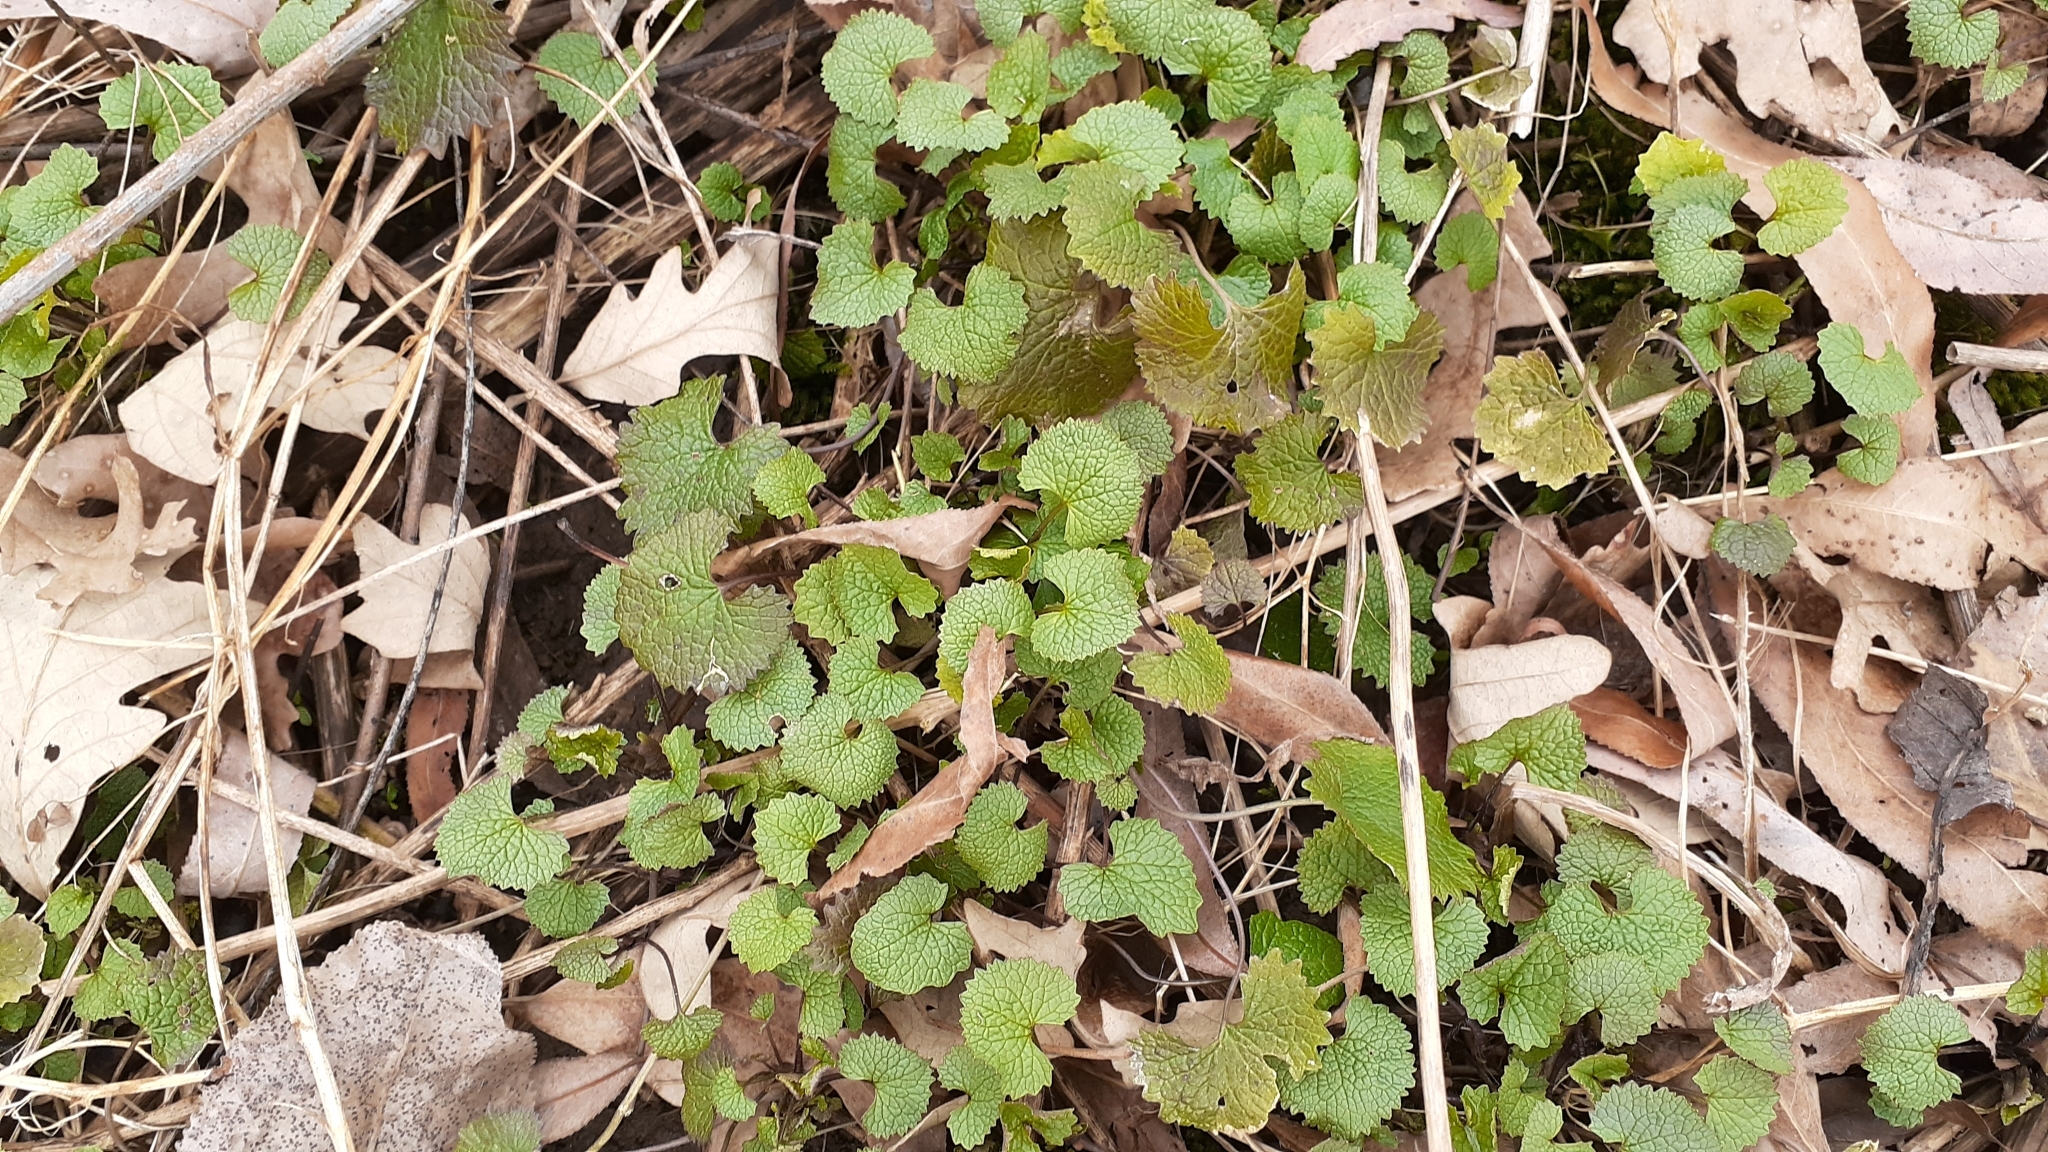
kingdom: Plantae
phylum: Tracheophyta
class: Magnoliopsida
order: Brassicales
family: Brassicaceae
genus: Alliaria
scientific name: Alliaria petiolata
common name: Garlic mustard
